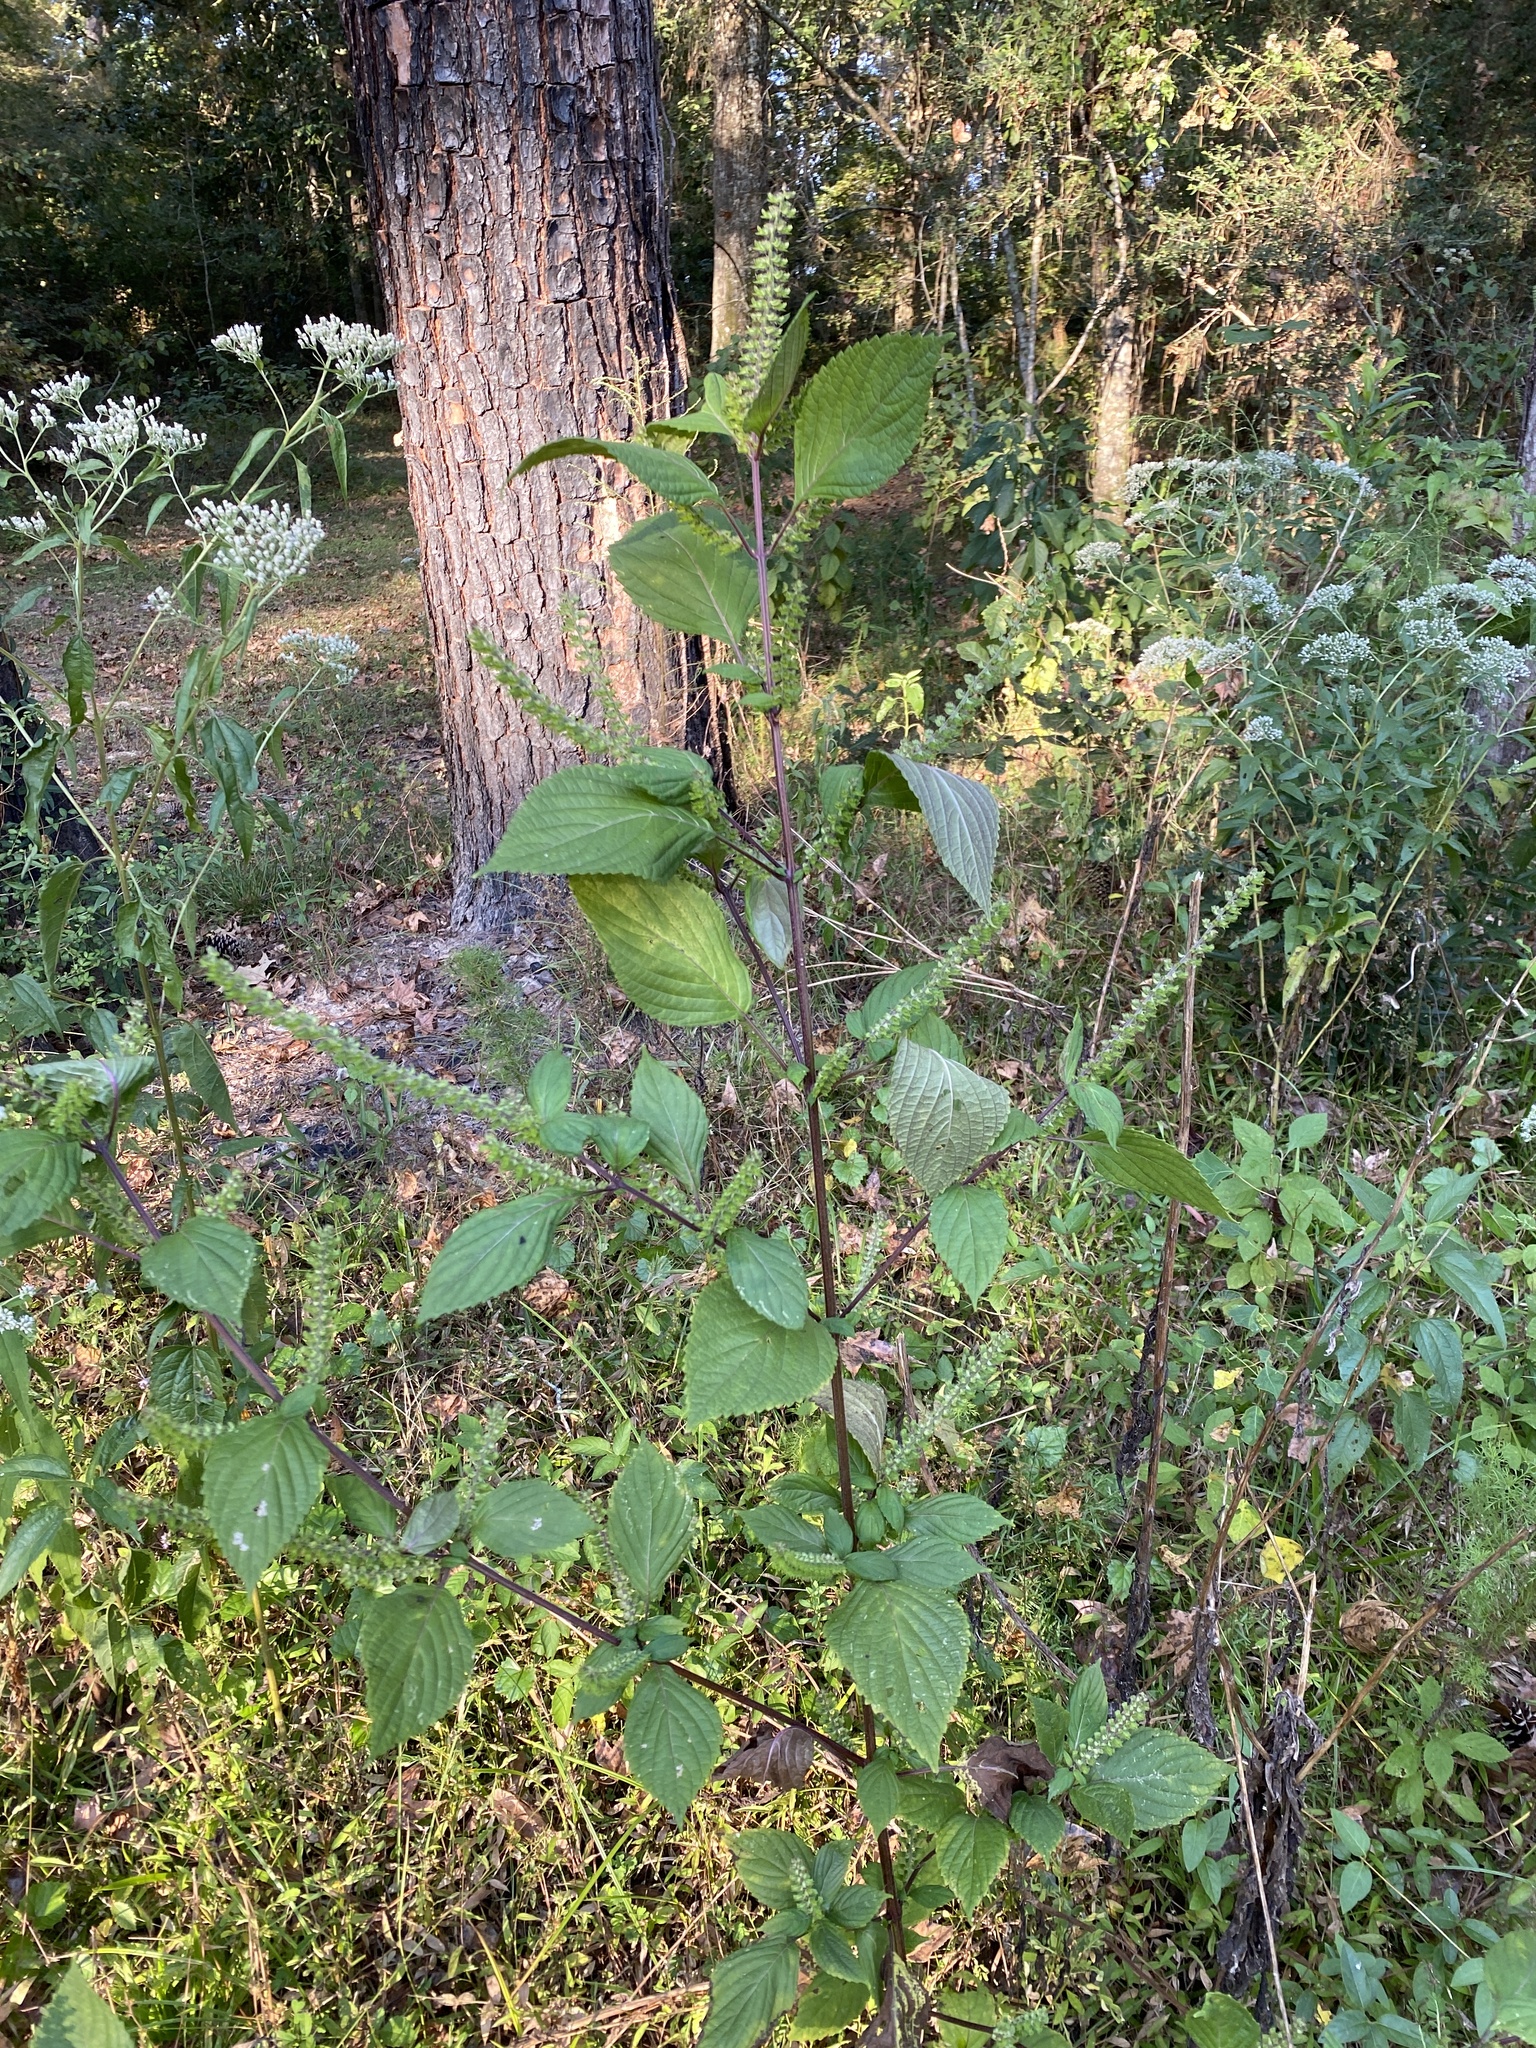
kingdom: Plantae
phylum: Tracheophyta
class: Magnoliopsida
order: Lamiales
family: Lamiaceae
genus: Perilla
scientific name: Perilla frutescens
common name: Perilla
